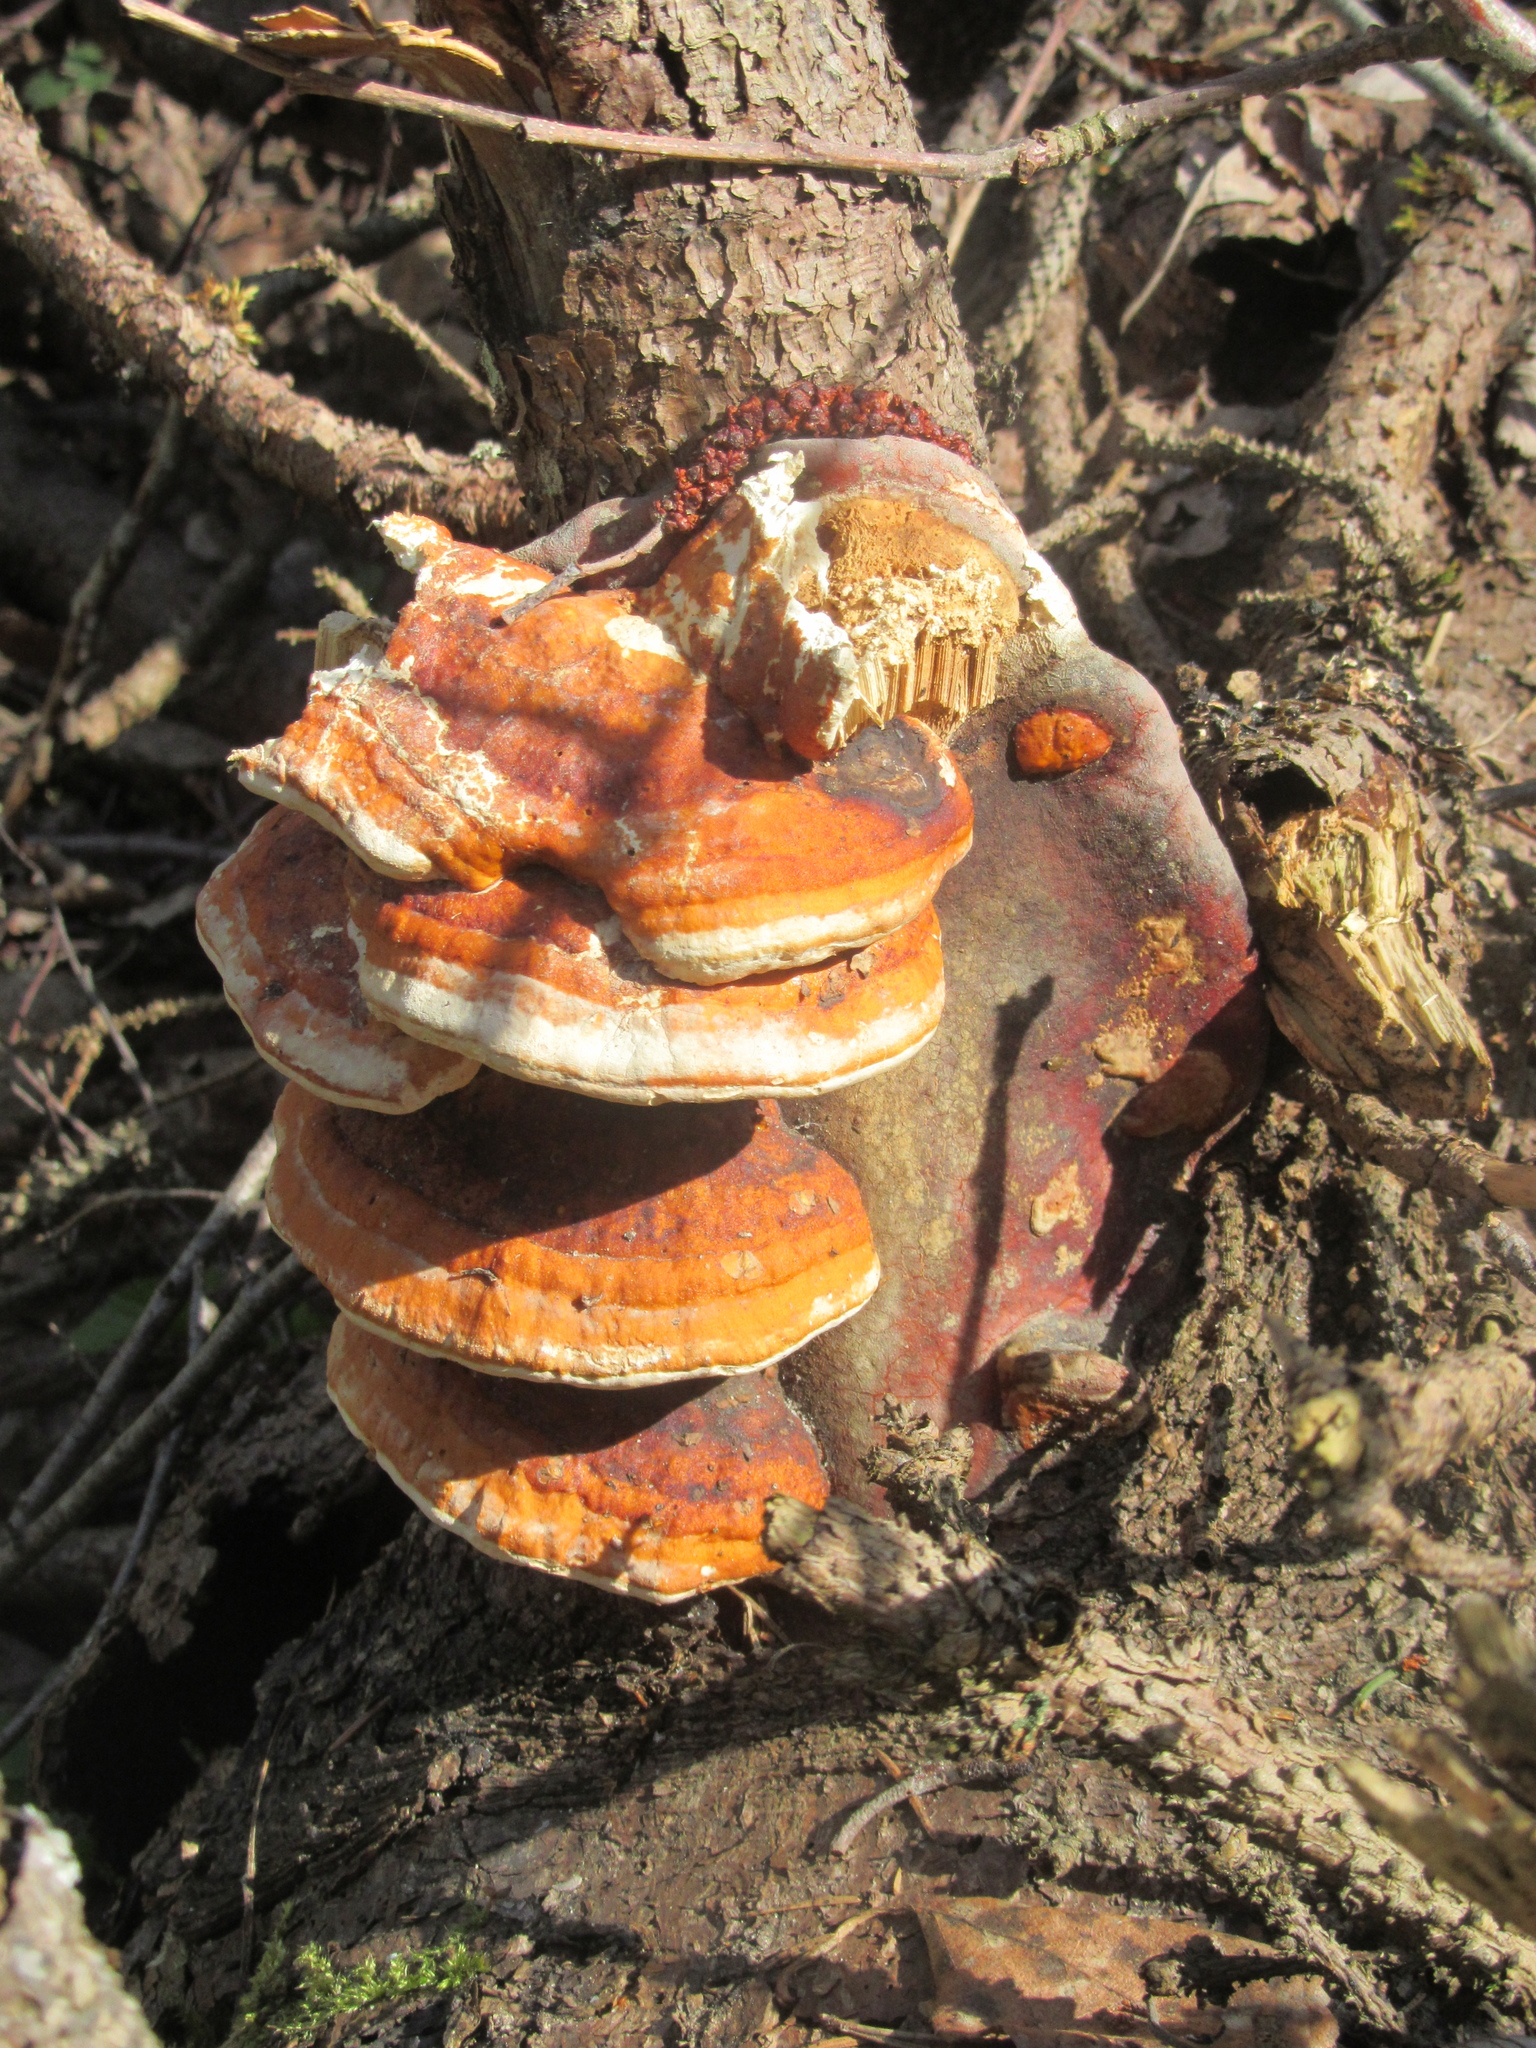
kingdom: Fungi
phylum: Basidiomycota
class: Agaricomycetes
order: Polyporales
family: Fomitopsidaceae
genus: Fomitopsis
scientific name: Fomitopsis pinicola
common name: Red-belted bracket
